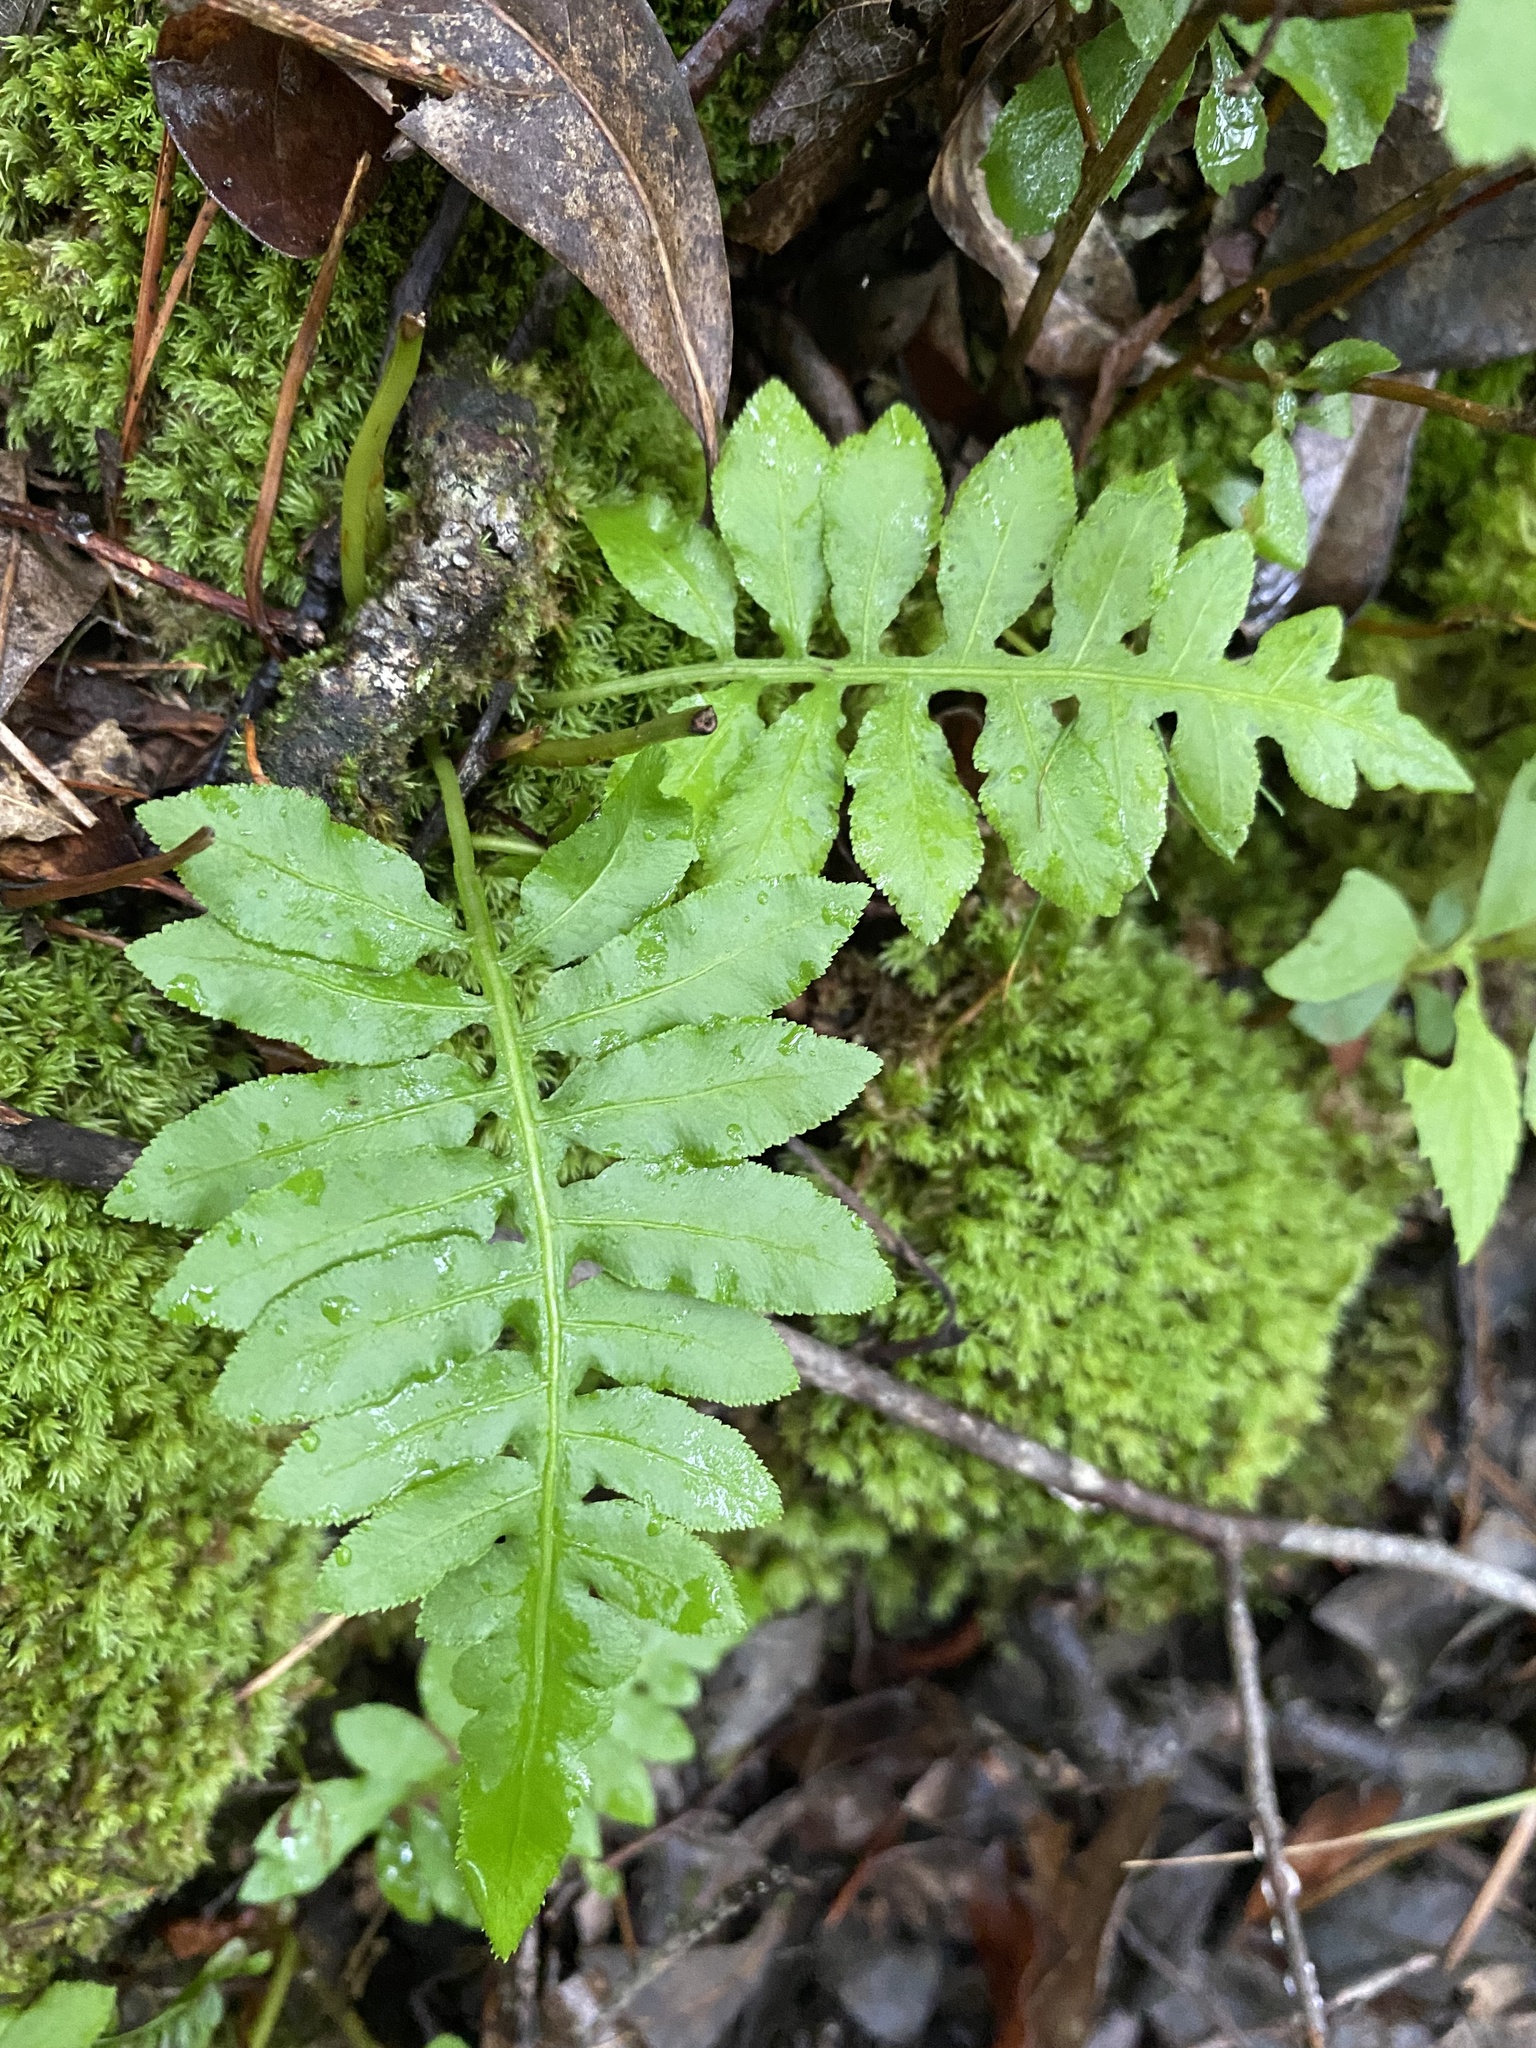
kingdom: Plantae
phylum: Tracheophyta
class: Polypodiopsida
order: Polypodiales
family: Blechnaceae
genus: Lorinseria
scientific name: Lorinseria areolata
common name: Dwarf chain fern
